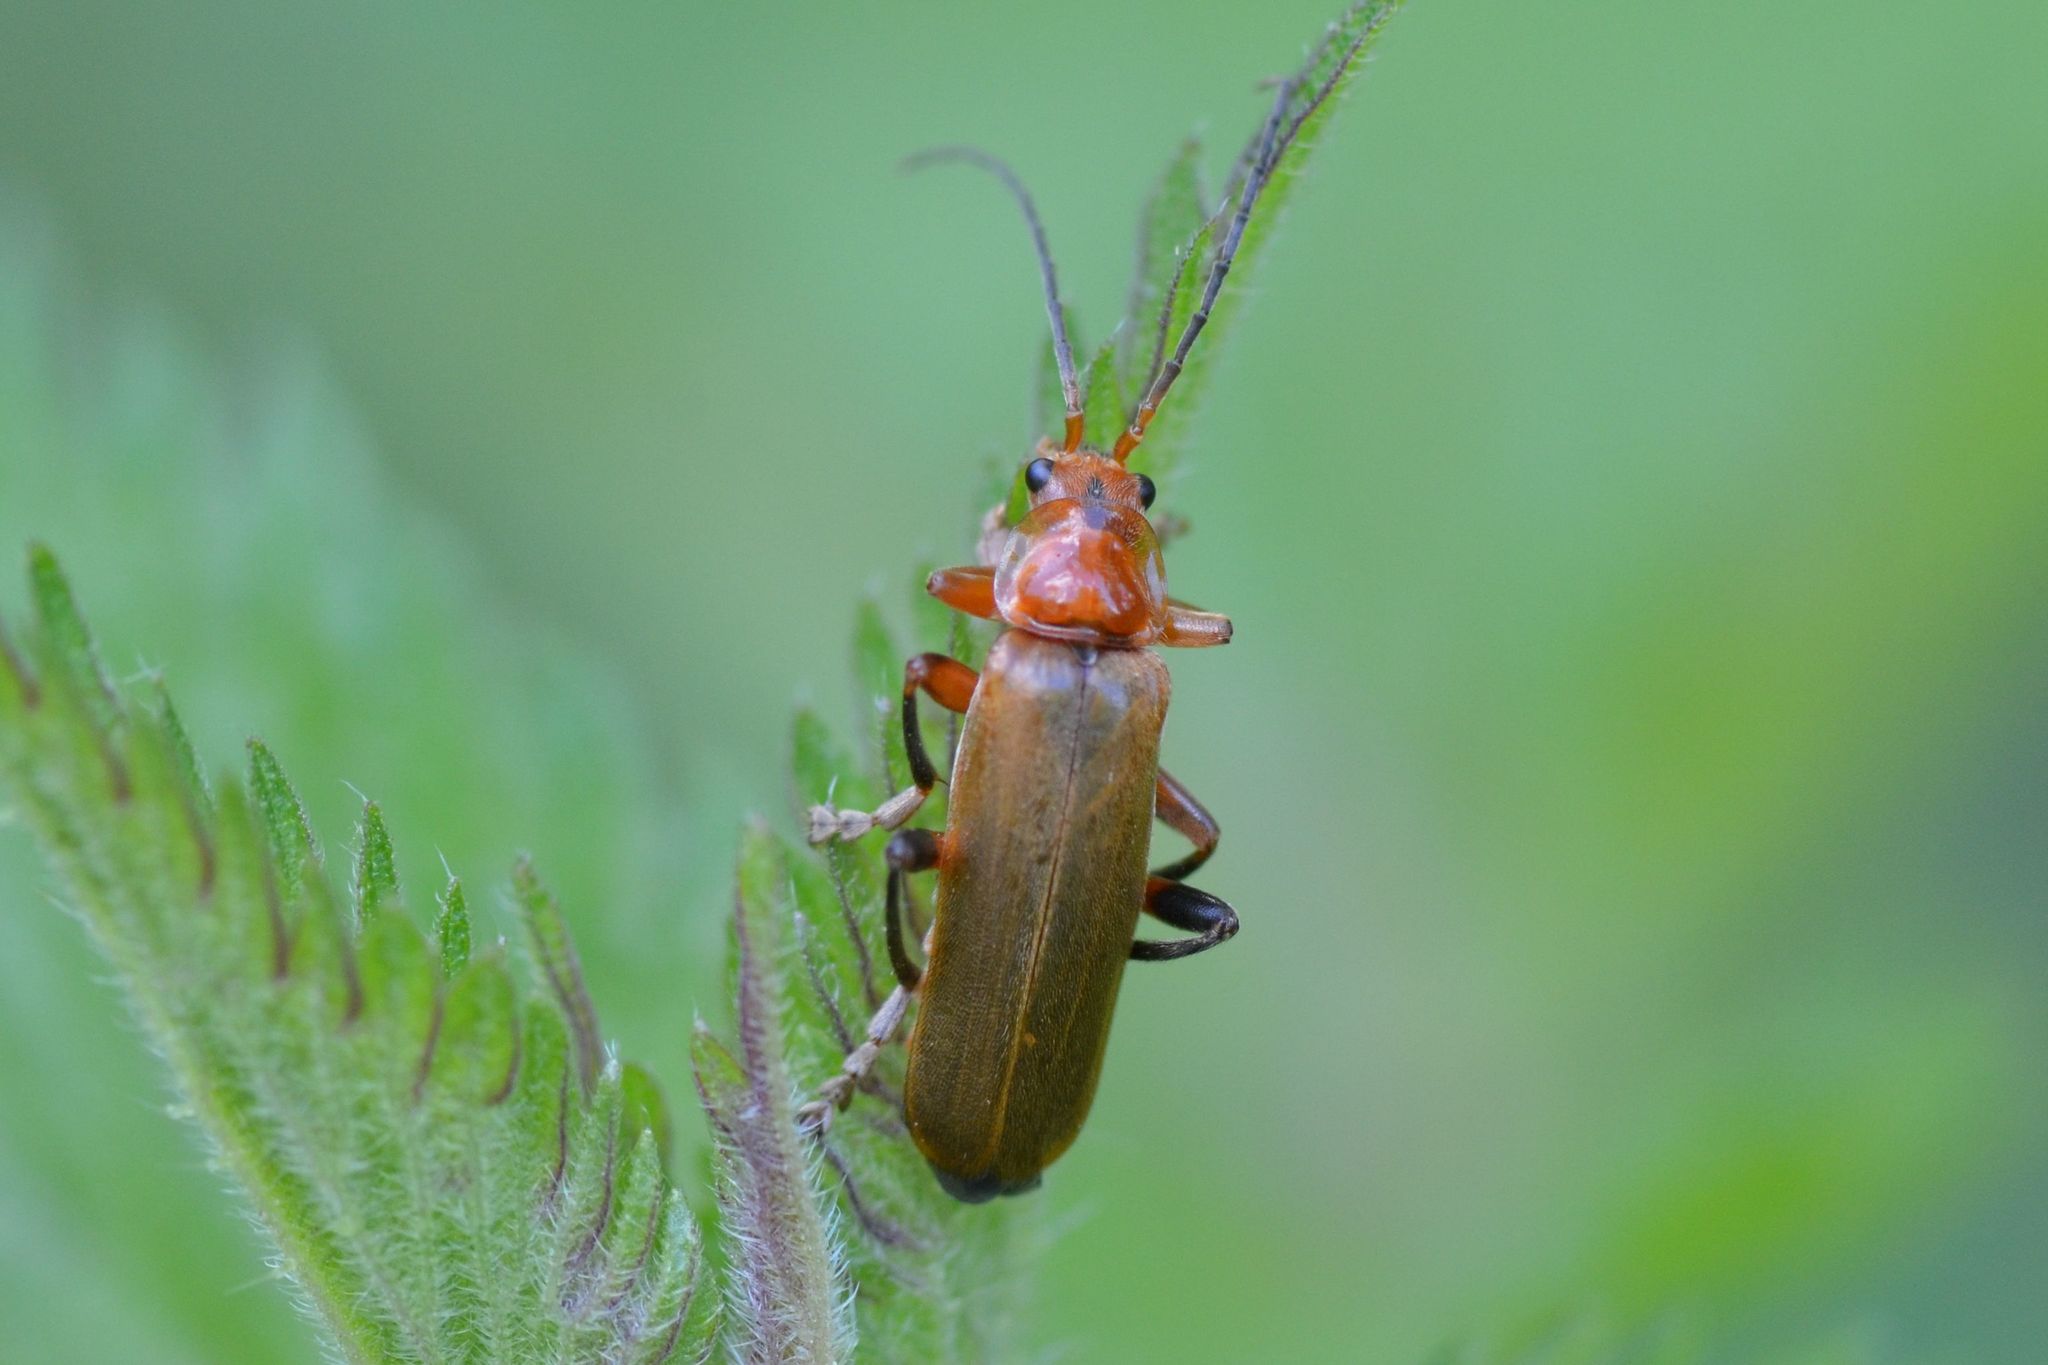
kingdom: Animalia
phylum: Arthropoda
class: Insecta
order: Coleoptera
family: Cantharidae
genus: Cantharis
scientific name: Cantharis livida
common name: Livid soldier beetle
